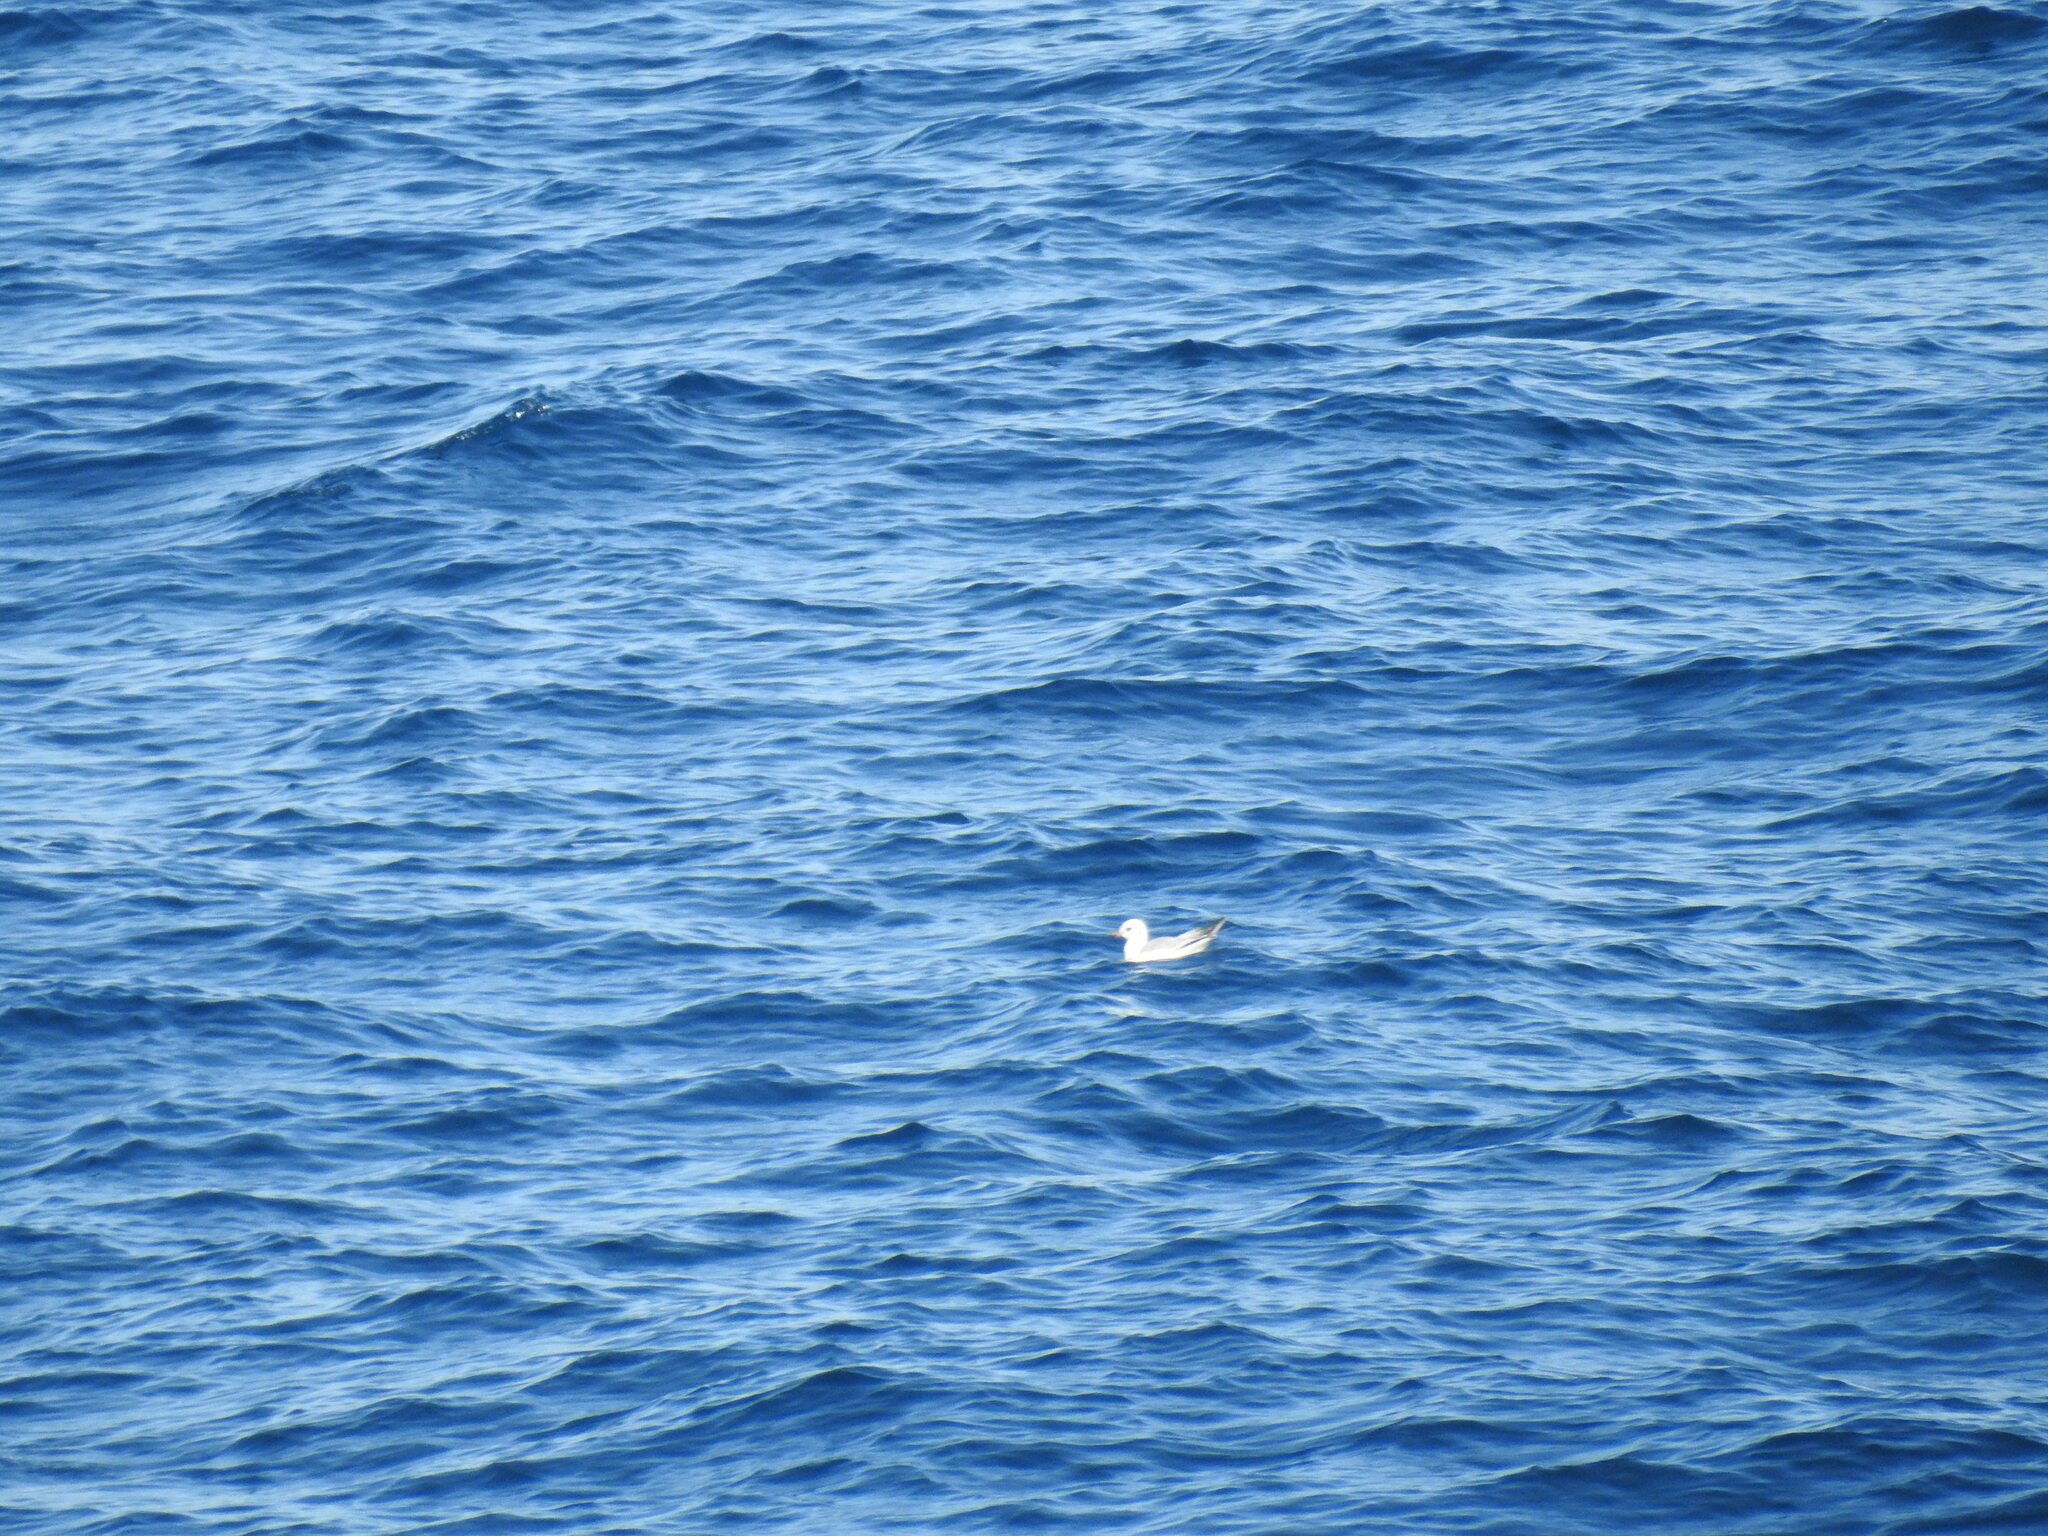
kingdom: Animalia
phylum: Chordata
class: Aves
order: Charadriiformes
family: Laridae
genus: Ichthyaetus
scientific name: Ichthyaetus melanocephalus
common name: Mediterranean gull
